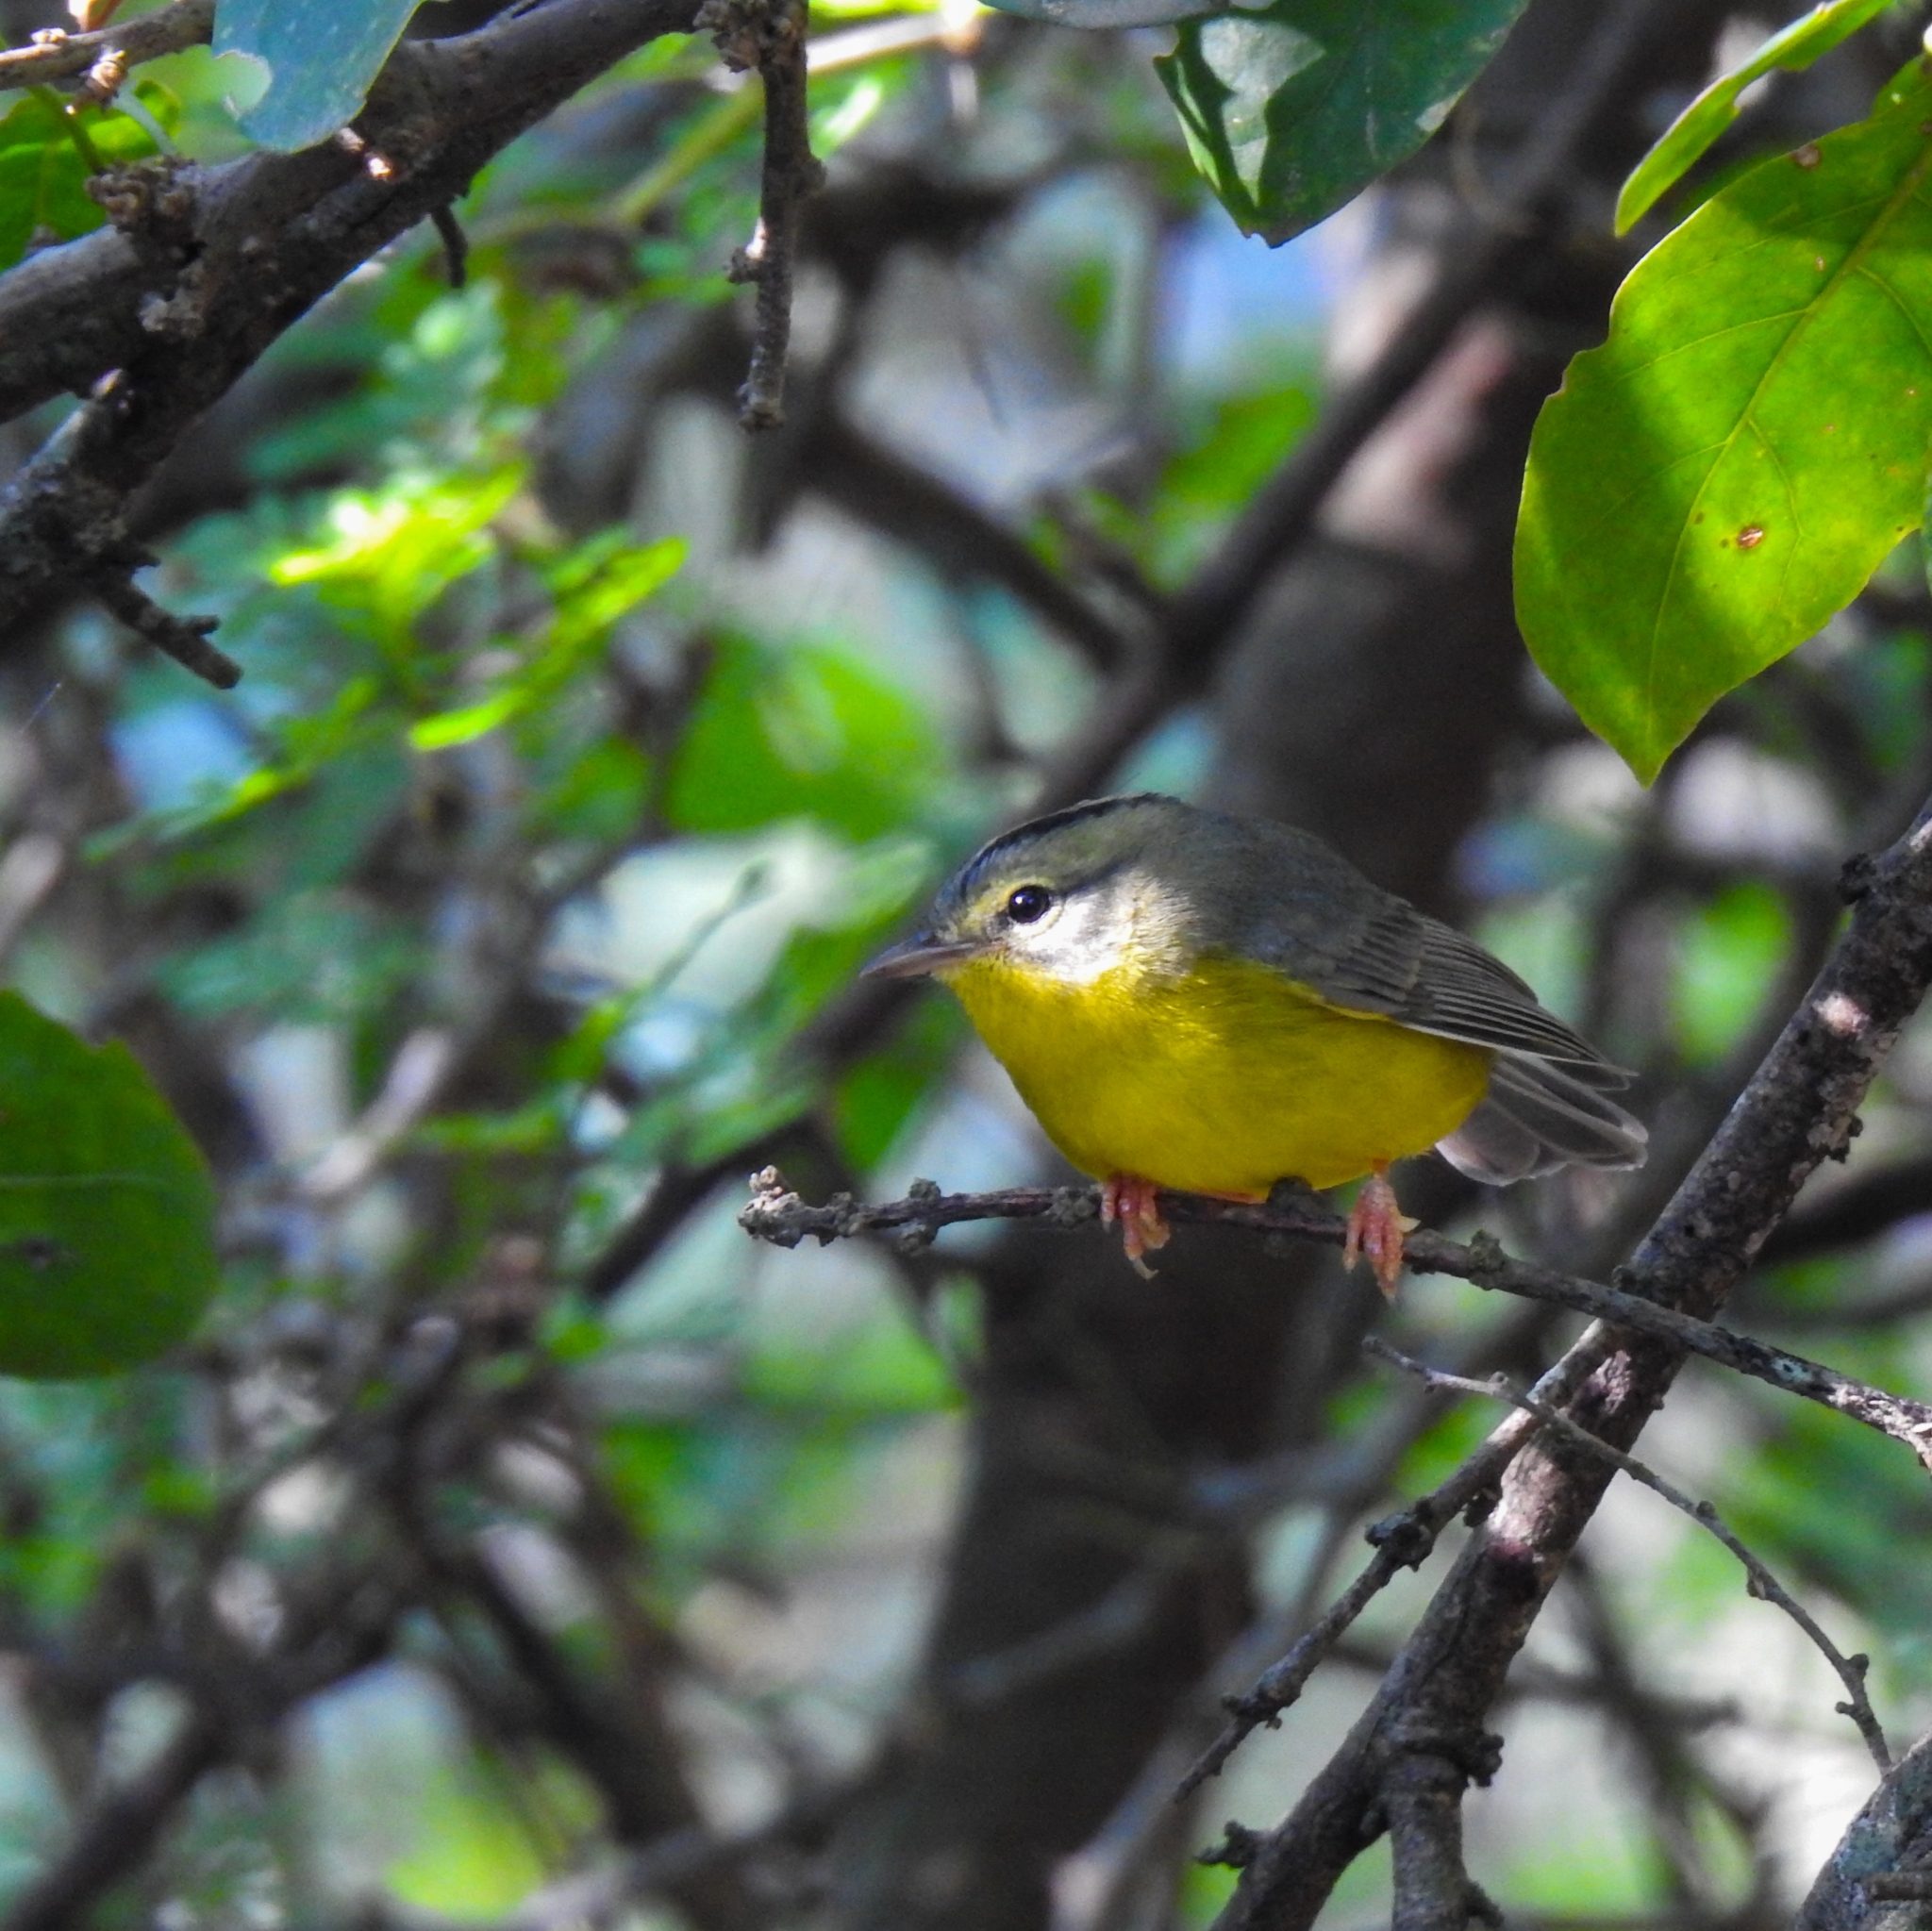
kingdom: Animalia
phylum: Chordata
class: Aves
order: Passeriformes
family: Parulidae
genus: Basileuterus
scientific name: Basileuterus culicivorus
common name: Golden-crowned warbler
